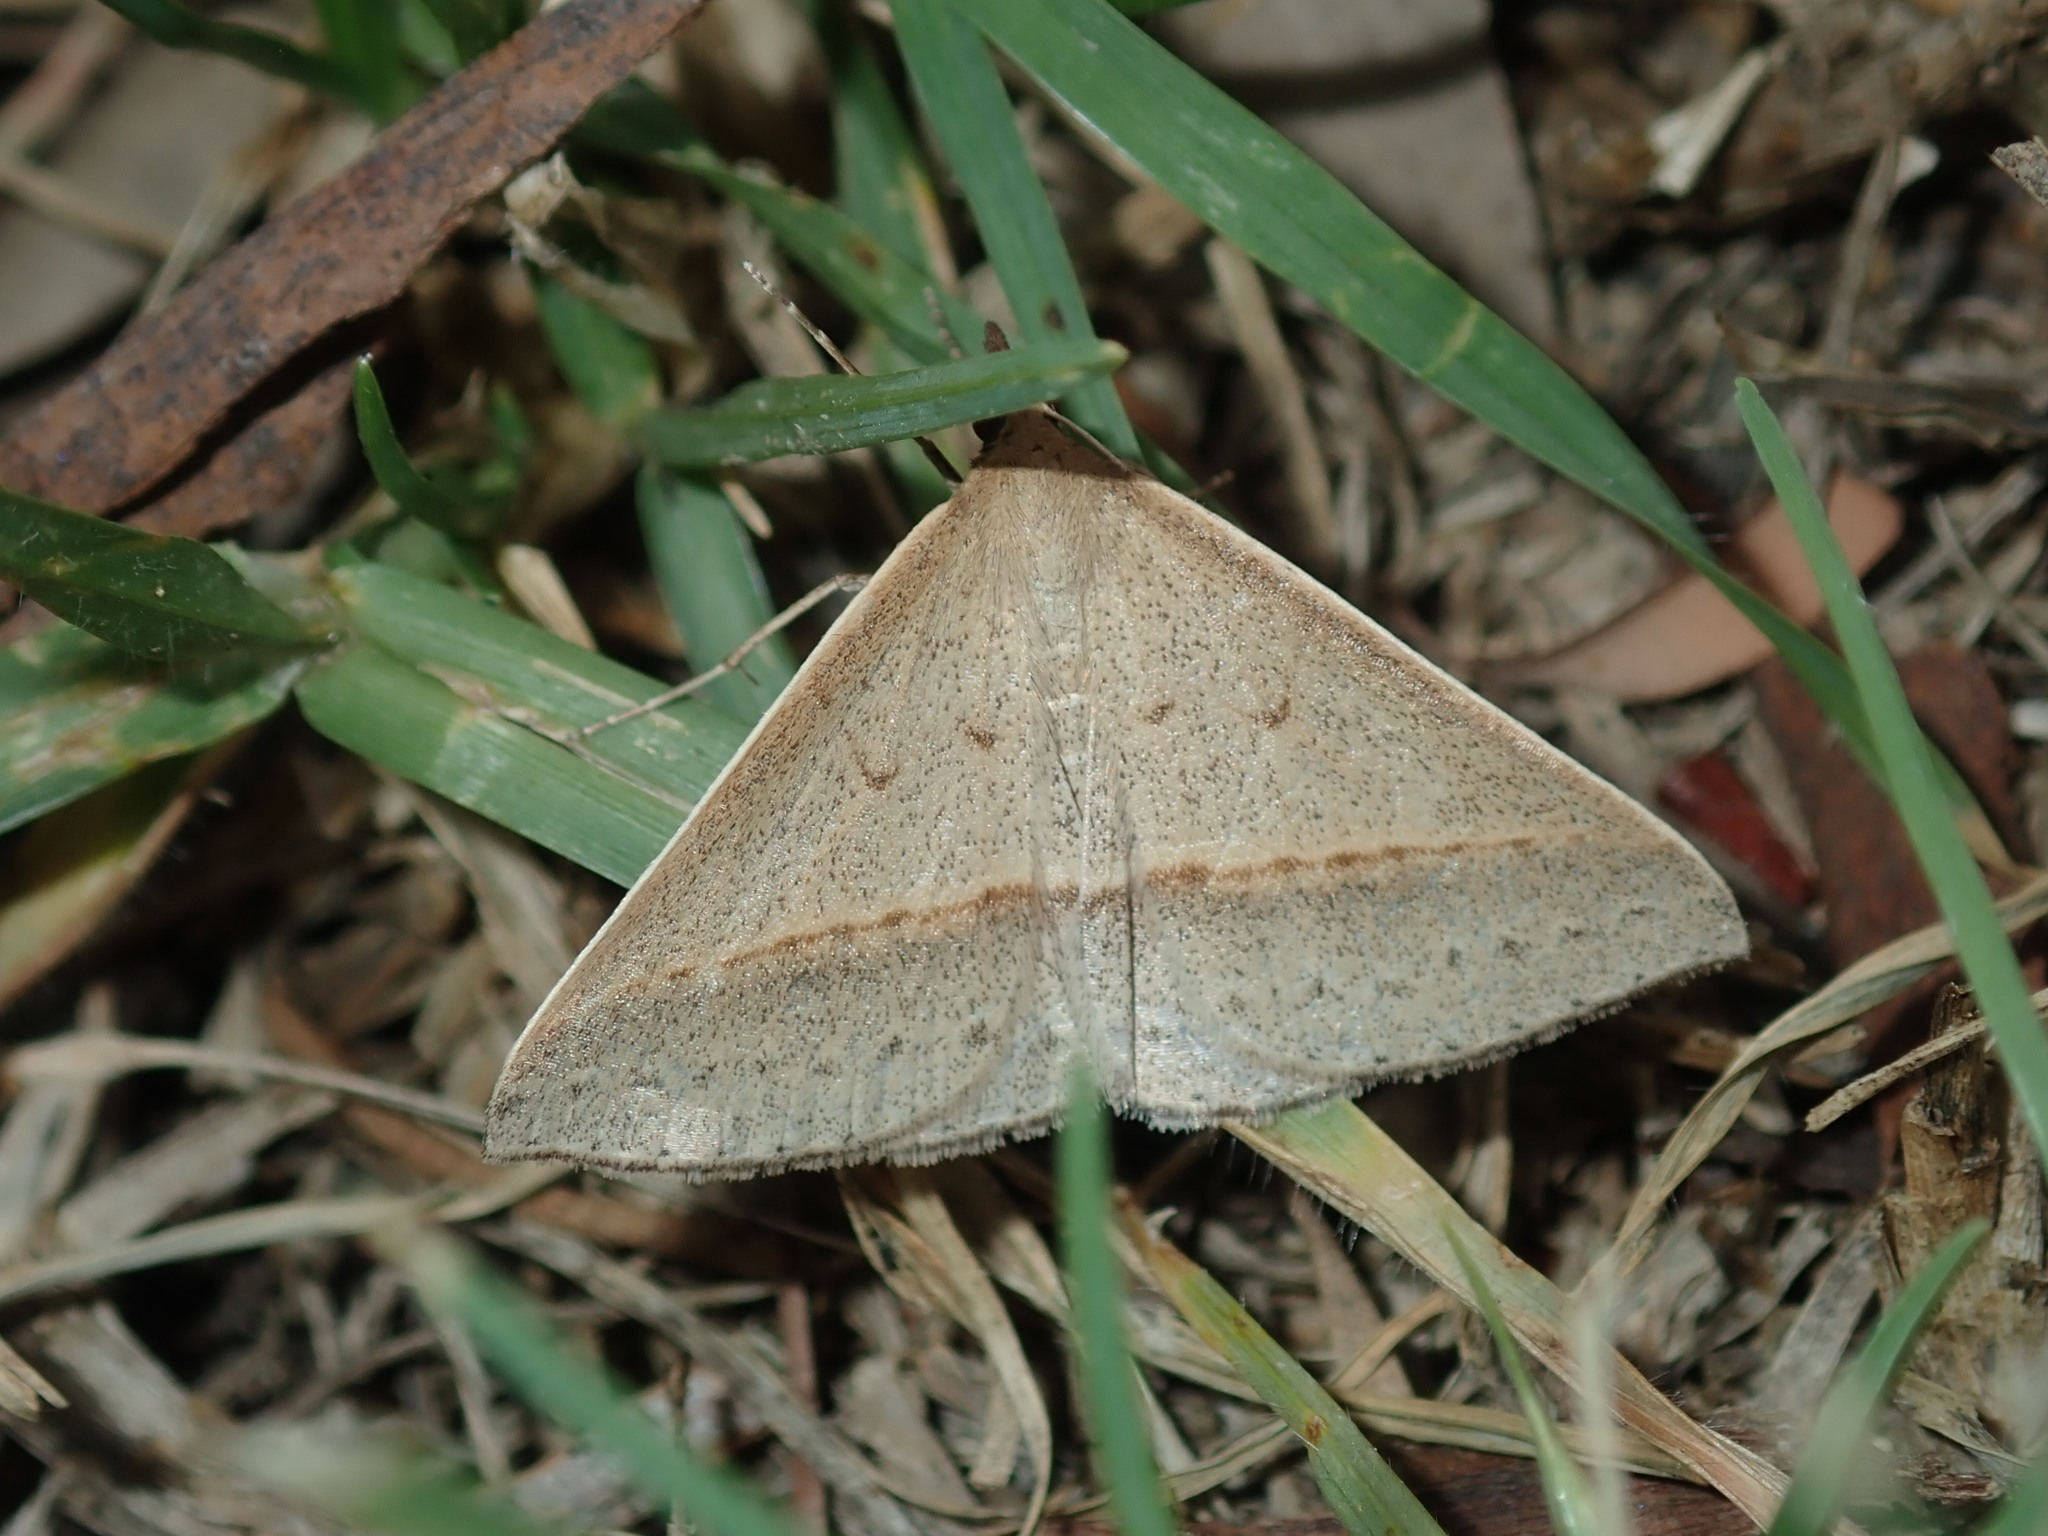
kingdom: Animalia
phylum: Arthropoda
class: Insecta
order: Lepidoptera
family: Geometridae
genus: Epidesmia
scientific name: Epidesmia tryxaria
